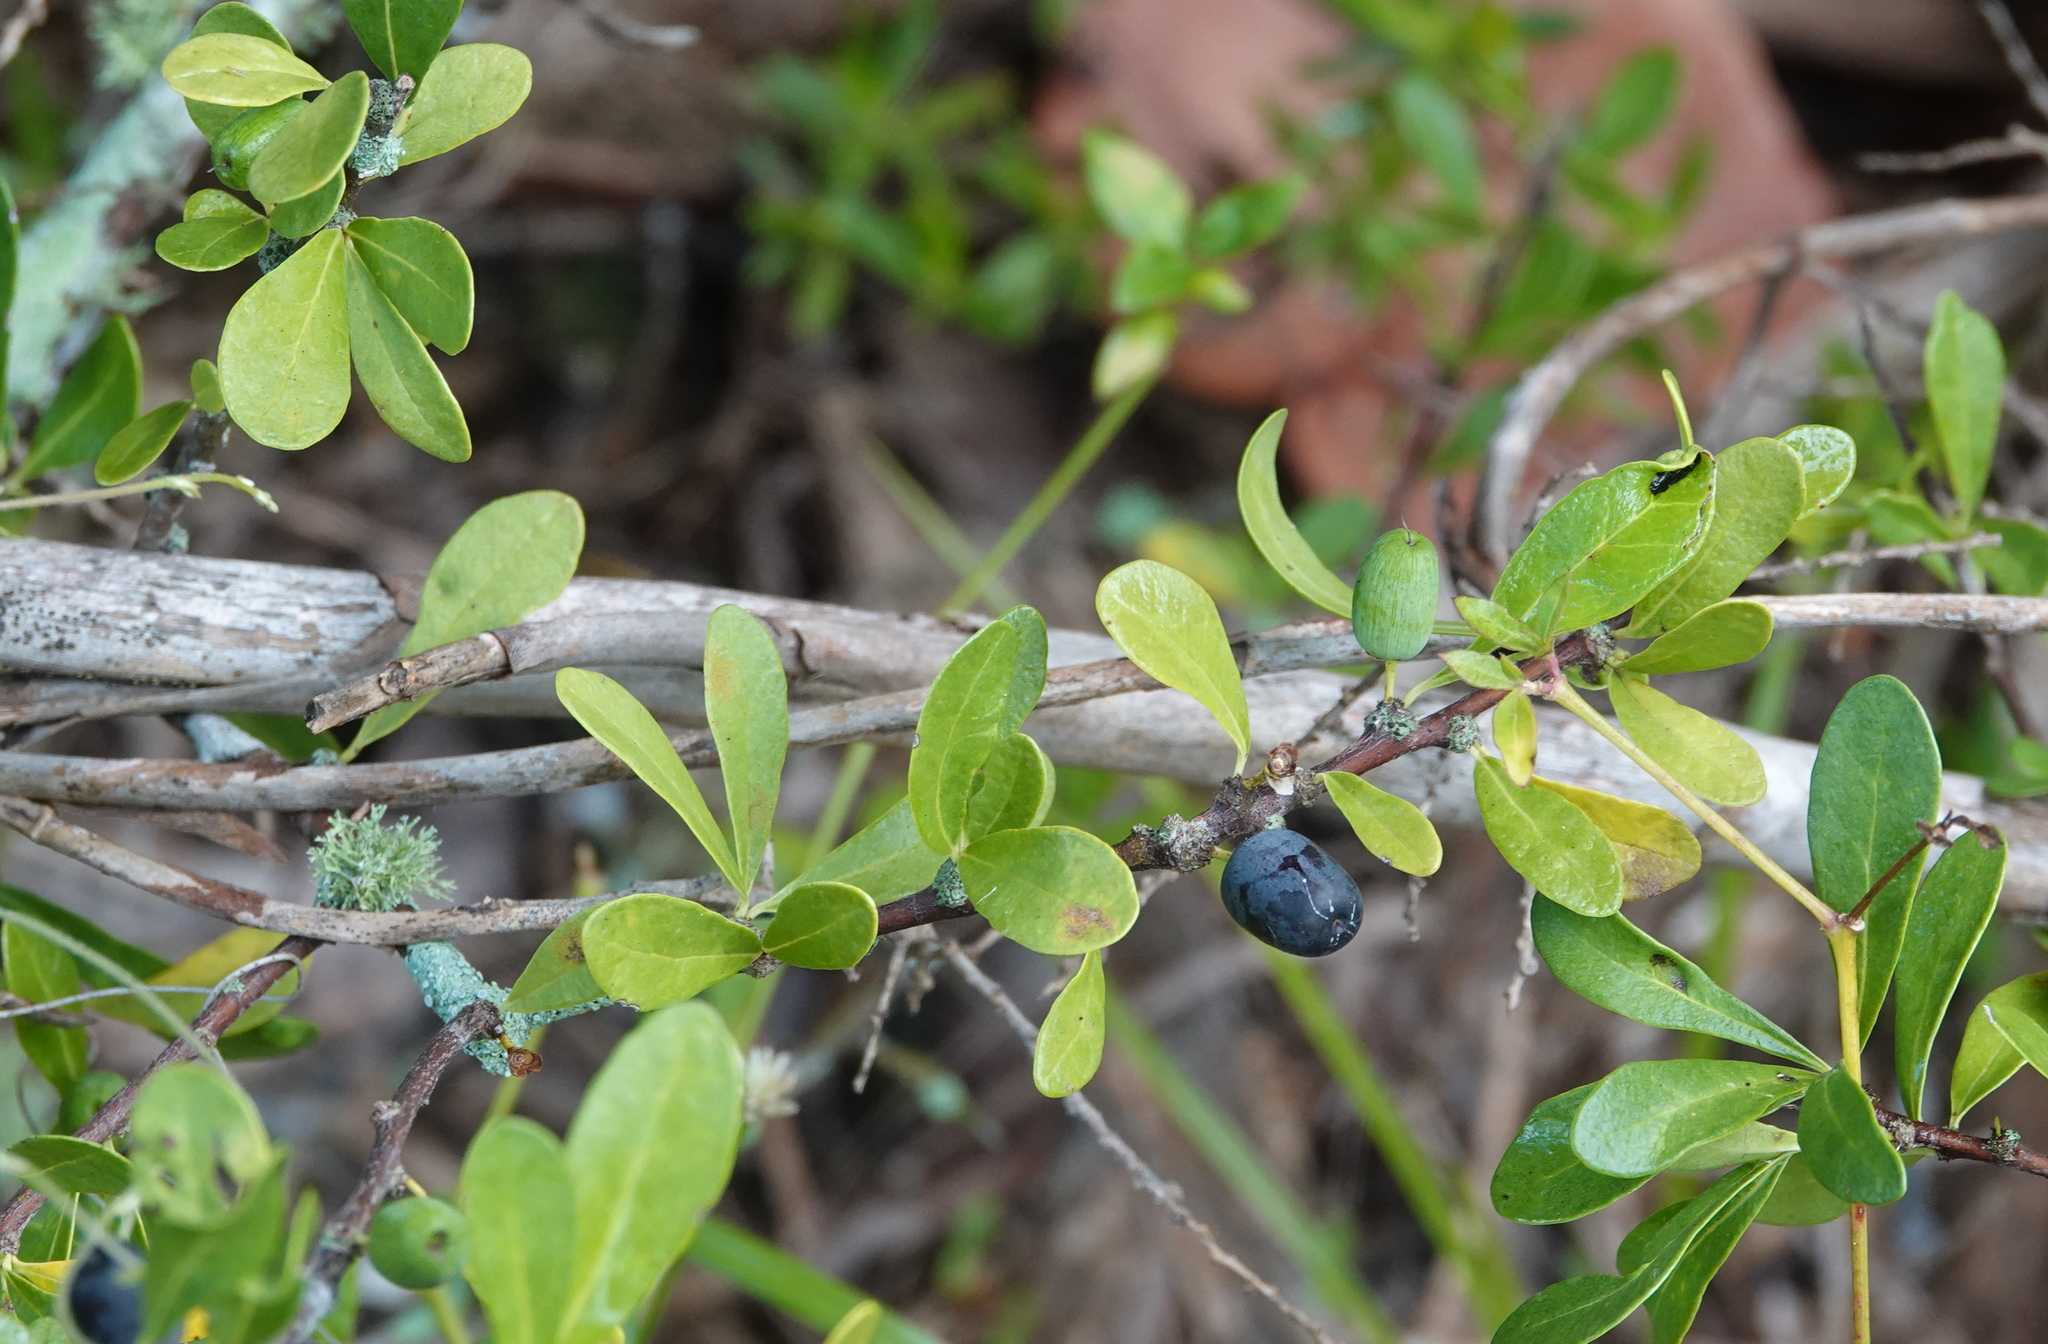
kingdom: Plantae
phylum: Tracheophyta
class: Magnoliopsida
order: Ericales
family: Sapotaceae
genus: Sideroxylon
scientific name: Sideroxylon celastrinum
